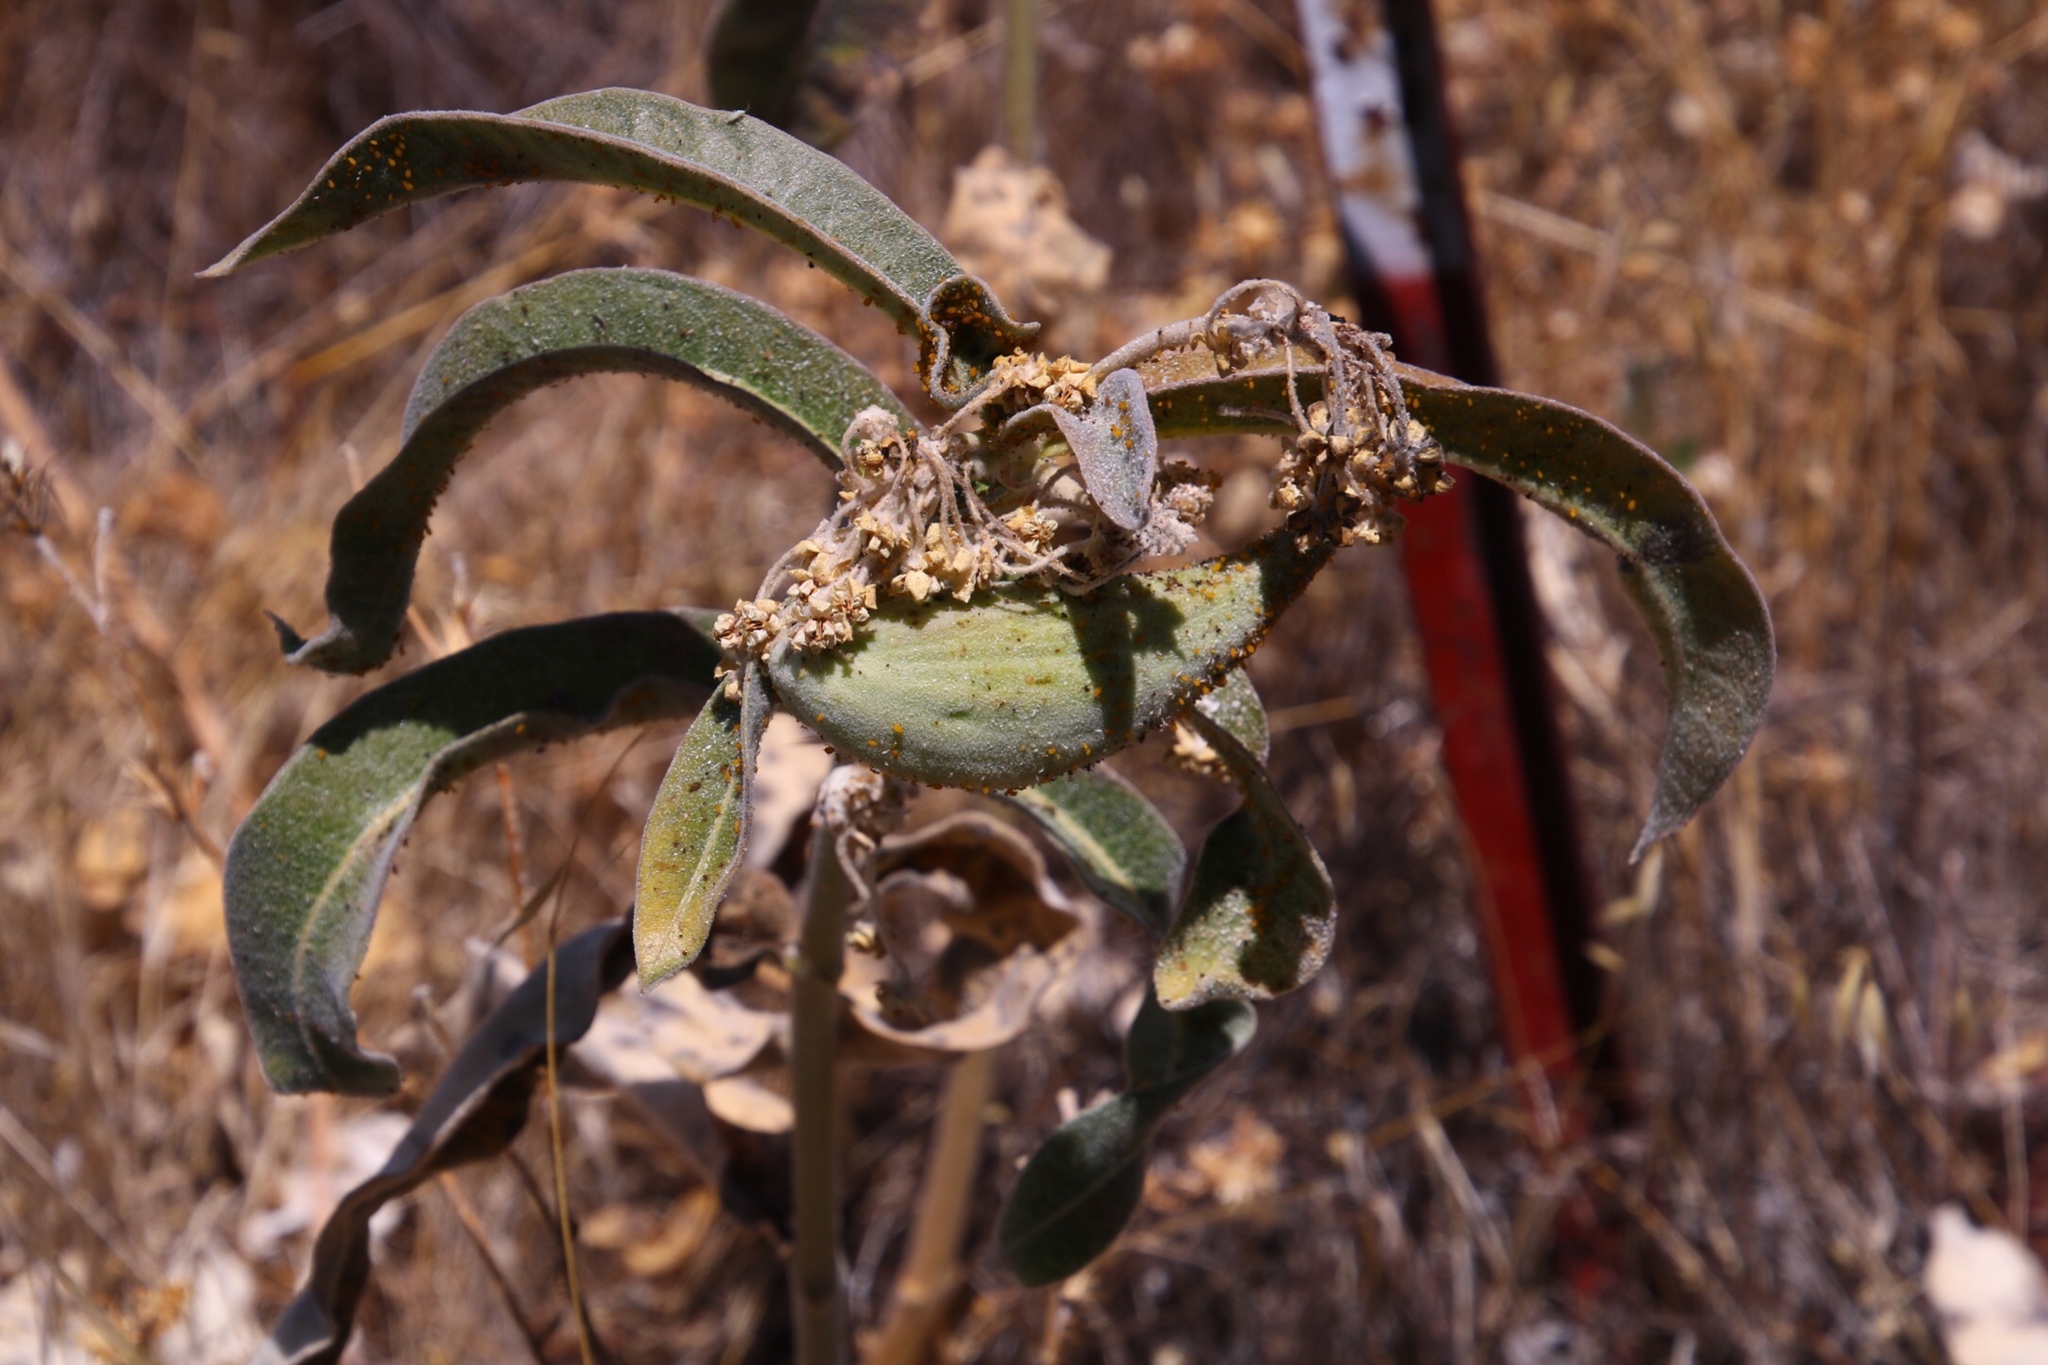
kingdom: Plantae
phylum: Tracheophyta
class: Magnoliopsida
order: Gentianales
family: Apocynaceae
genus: Asclepias
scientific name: Asclepias eriocarpa
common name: Indian milkweed
